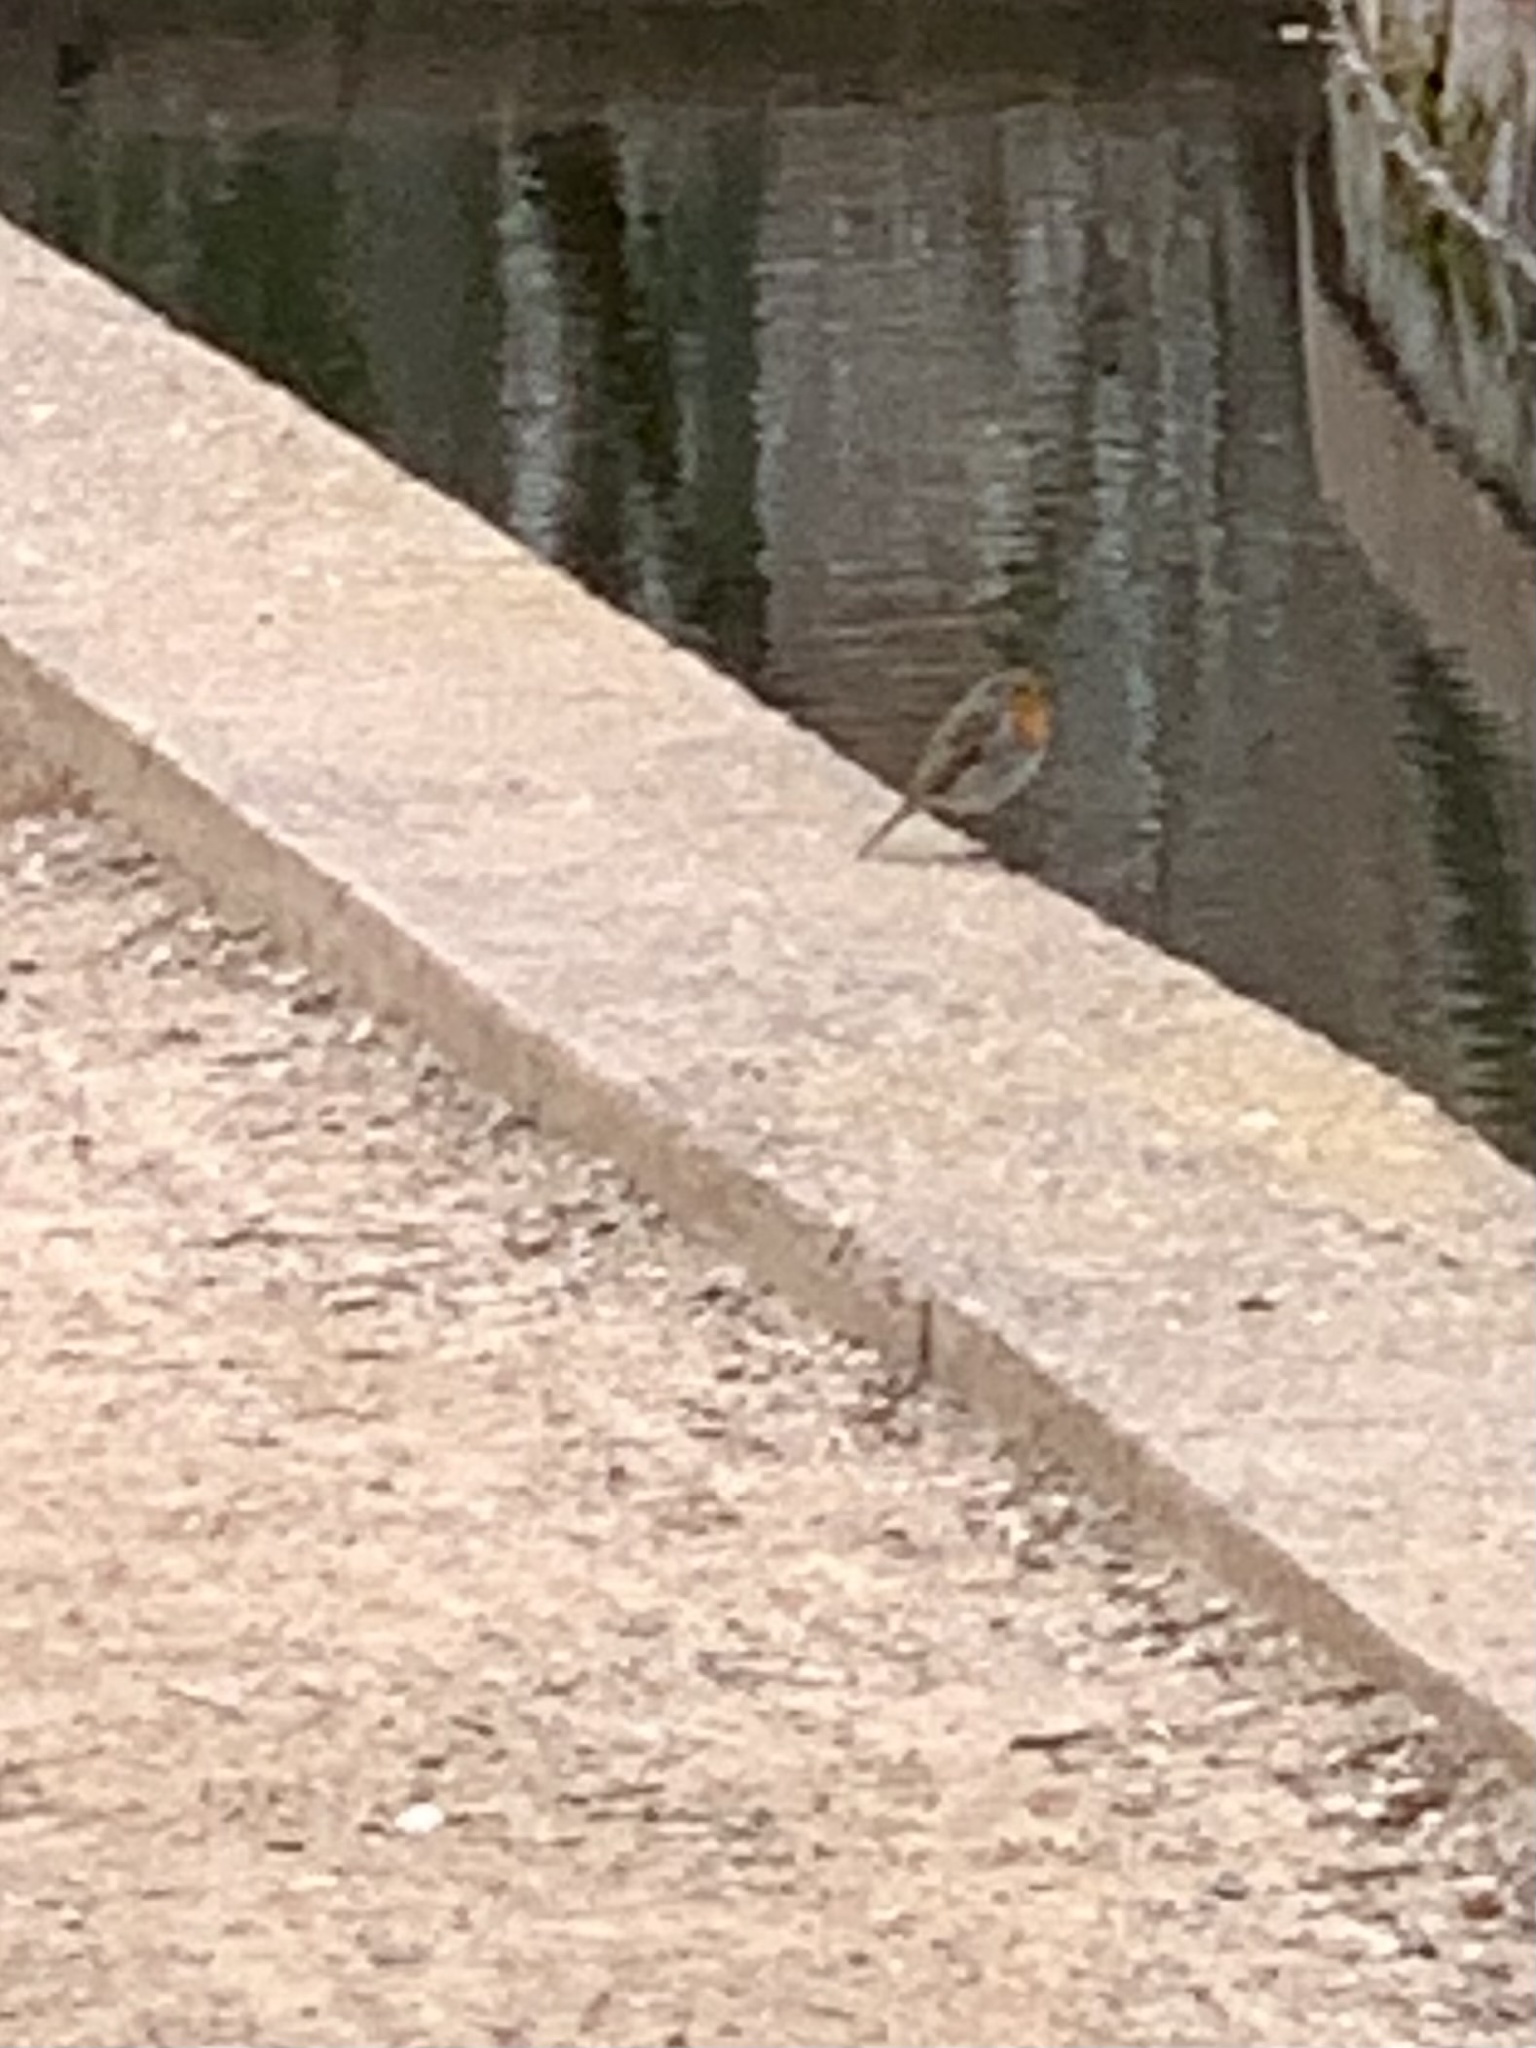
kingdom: Animalia
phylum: Chordata
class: Aves
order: Passeriformes
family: Muscicapidae
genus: Erithacus
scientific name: Erithacus rubecula
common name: European robin
